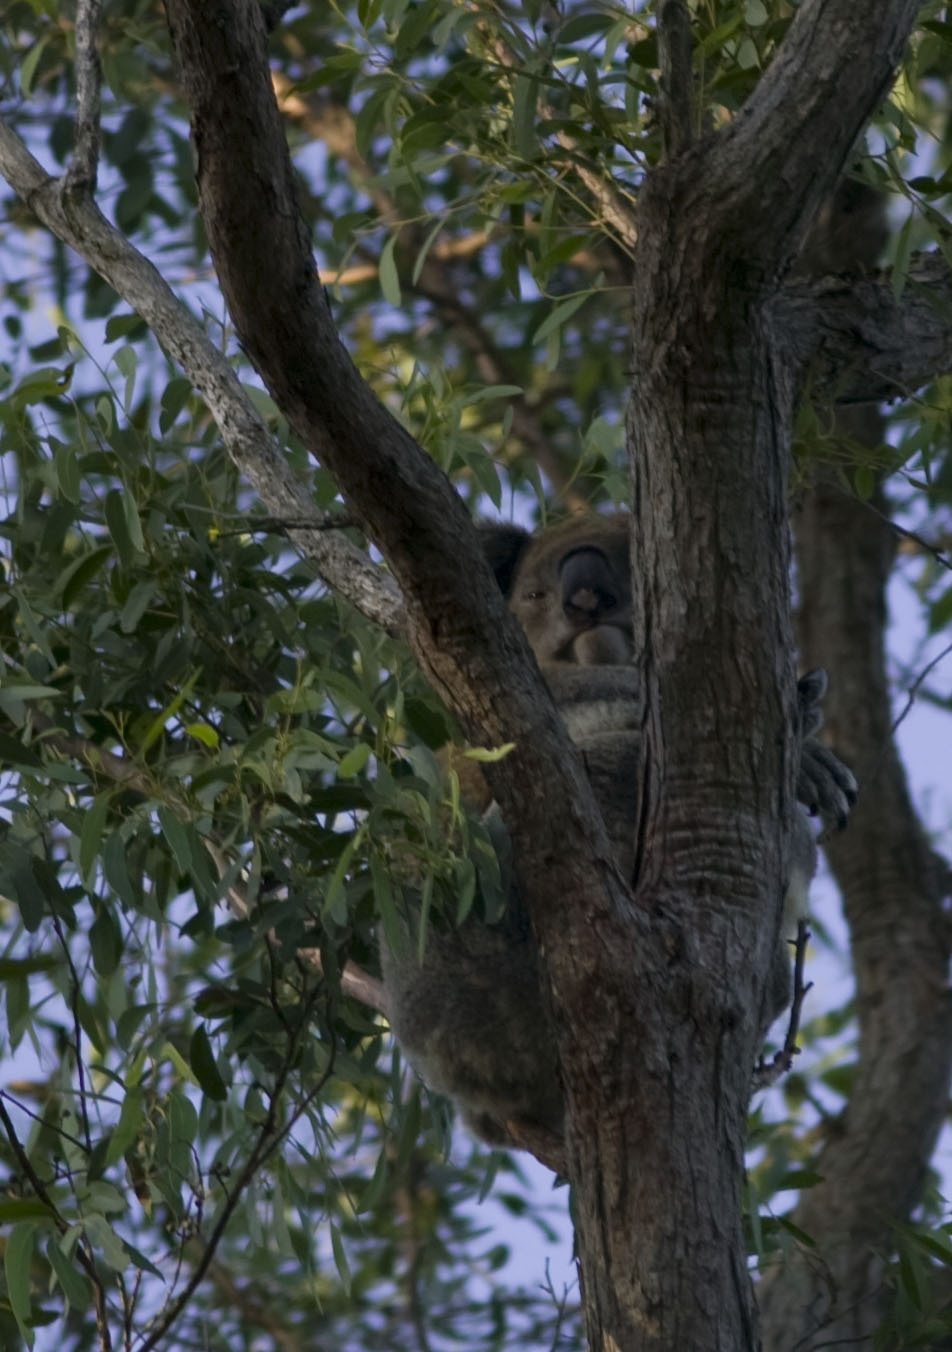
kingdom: Animalia
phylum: Chordata
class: Mammalia
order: Diprotodontia
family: Phascolarctidae
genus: Phascolarctos
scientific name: Phascolarctos cinereus
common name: Koala
